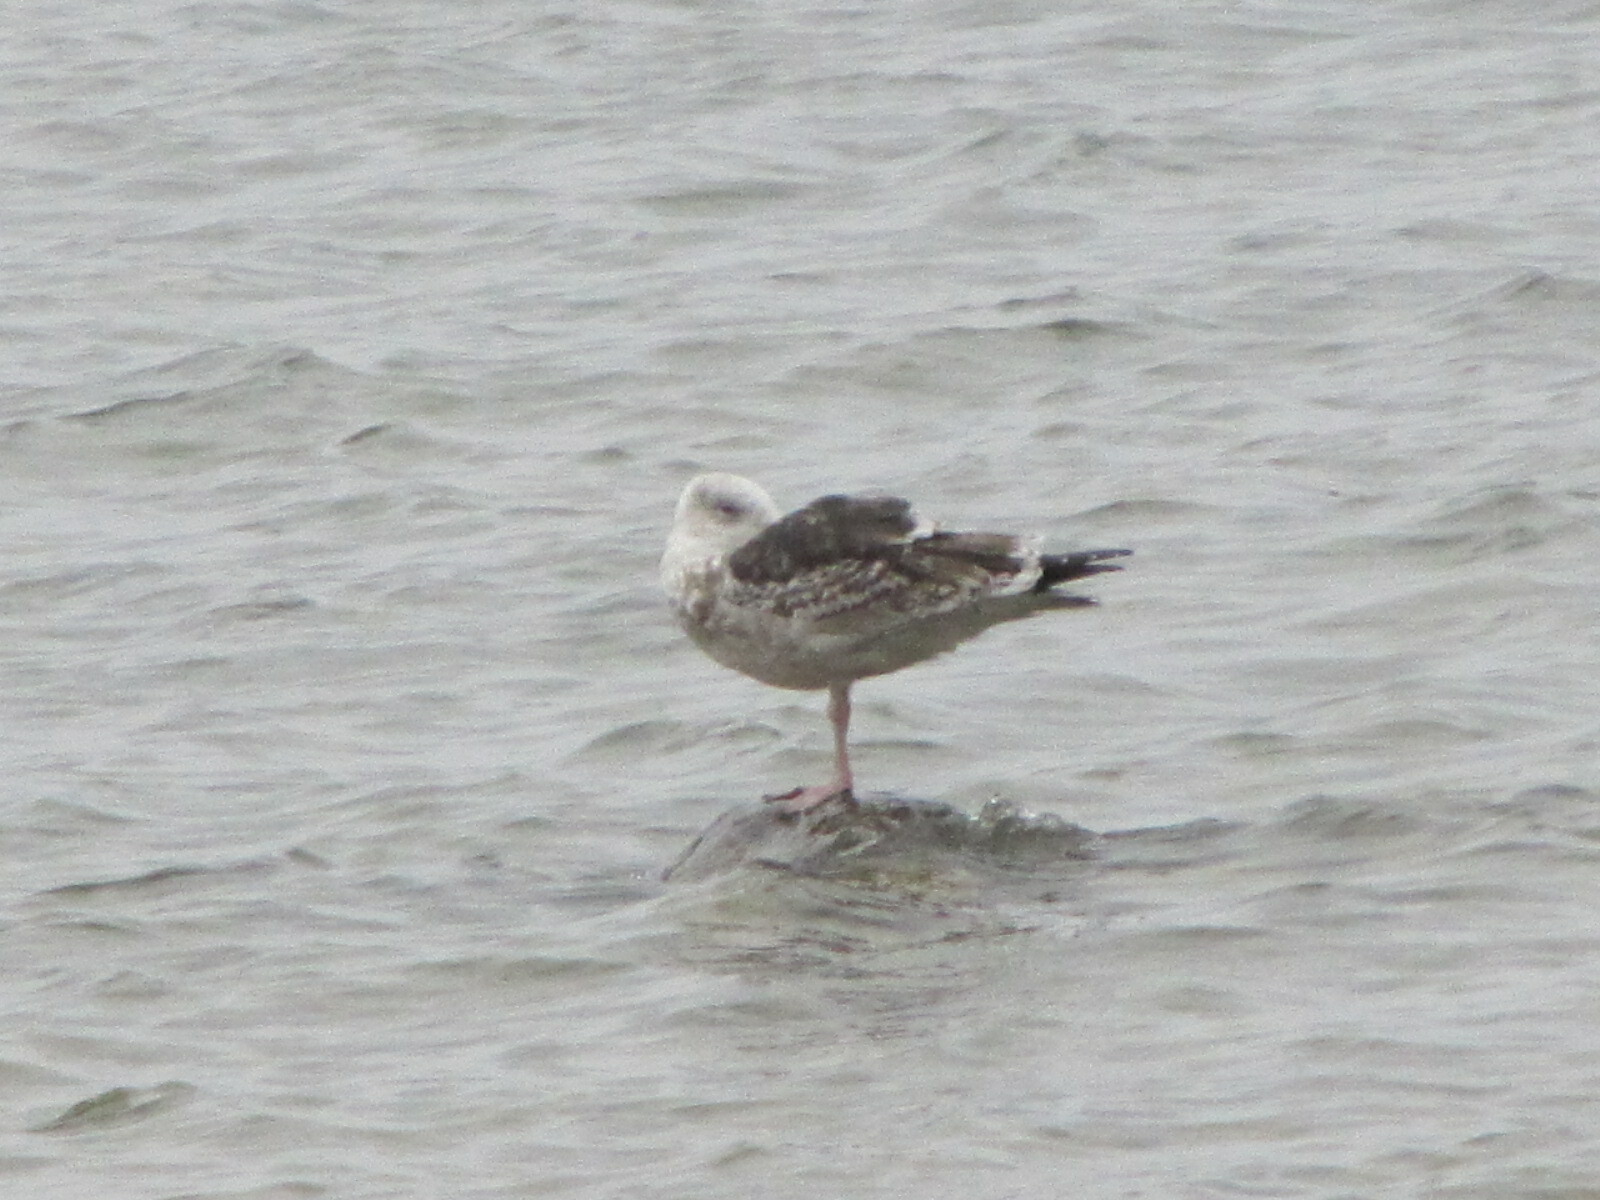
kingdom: Animalia
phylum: Chordata
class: Aves
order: Charadriiformes
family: Laridae
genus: Larus
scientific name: Larus marinus
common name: Great black-backed gull
